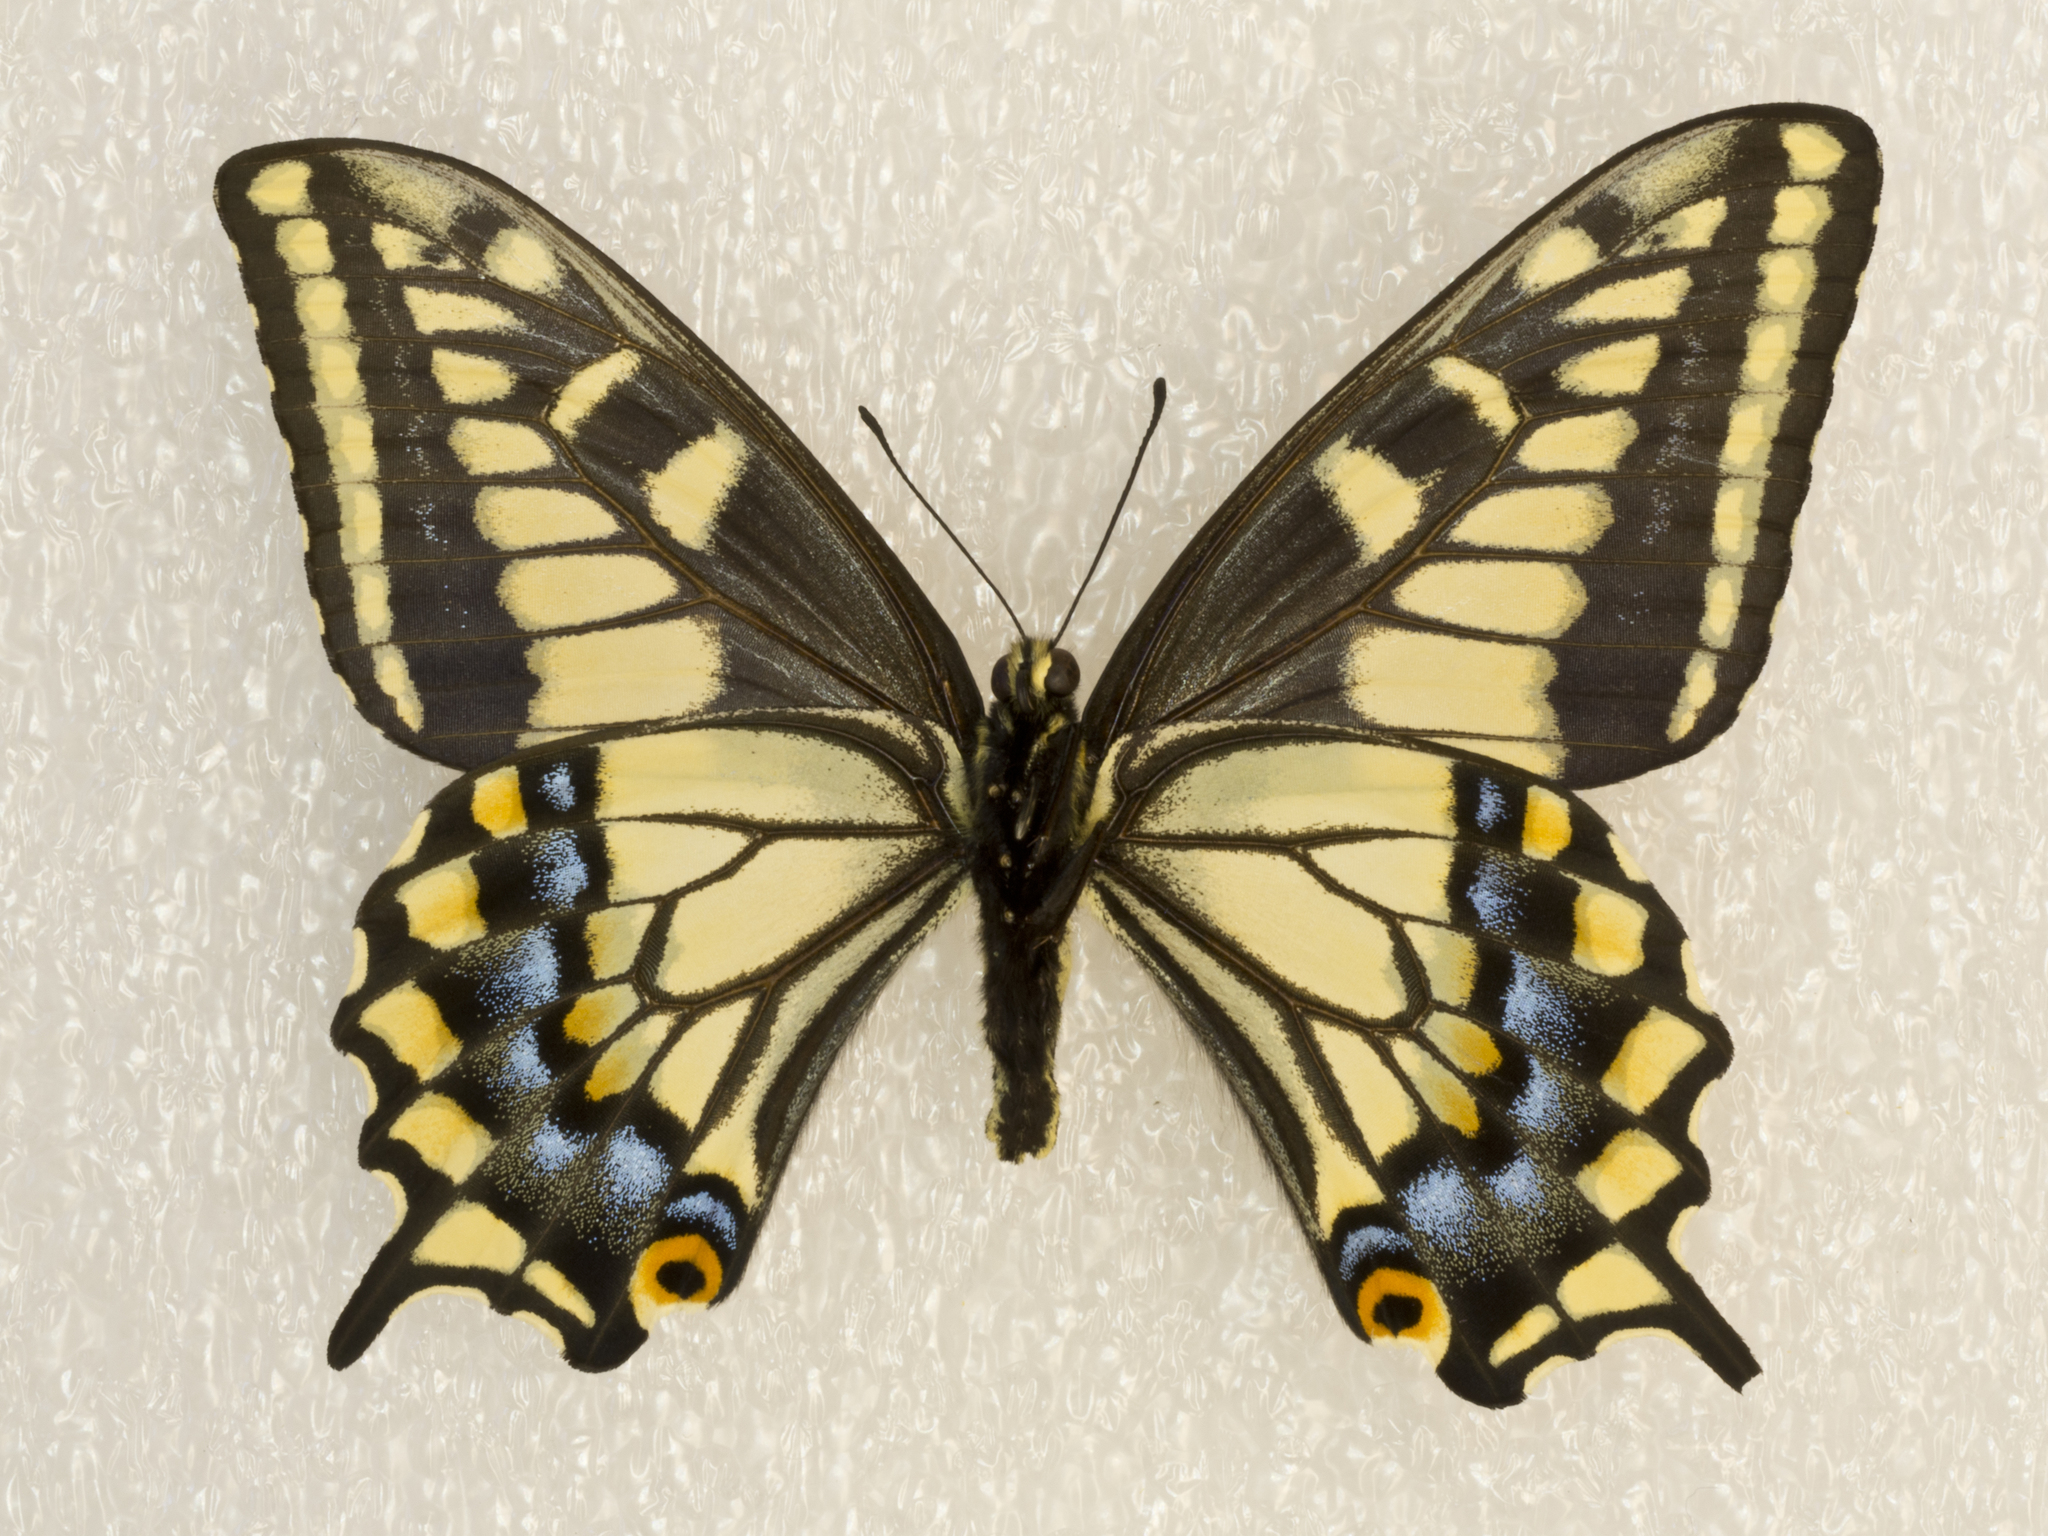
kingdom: Animalia
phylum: Arthropoda
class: Insecta
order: Lepidoptera
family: Papilionidae
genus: Papilio
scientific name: Papilio zelicaon
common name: Anise swallowtail
